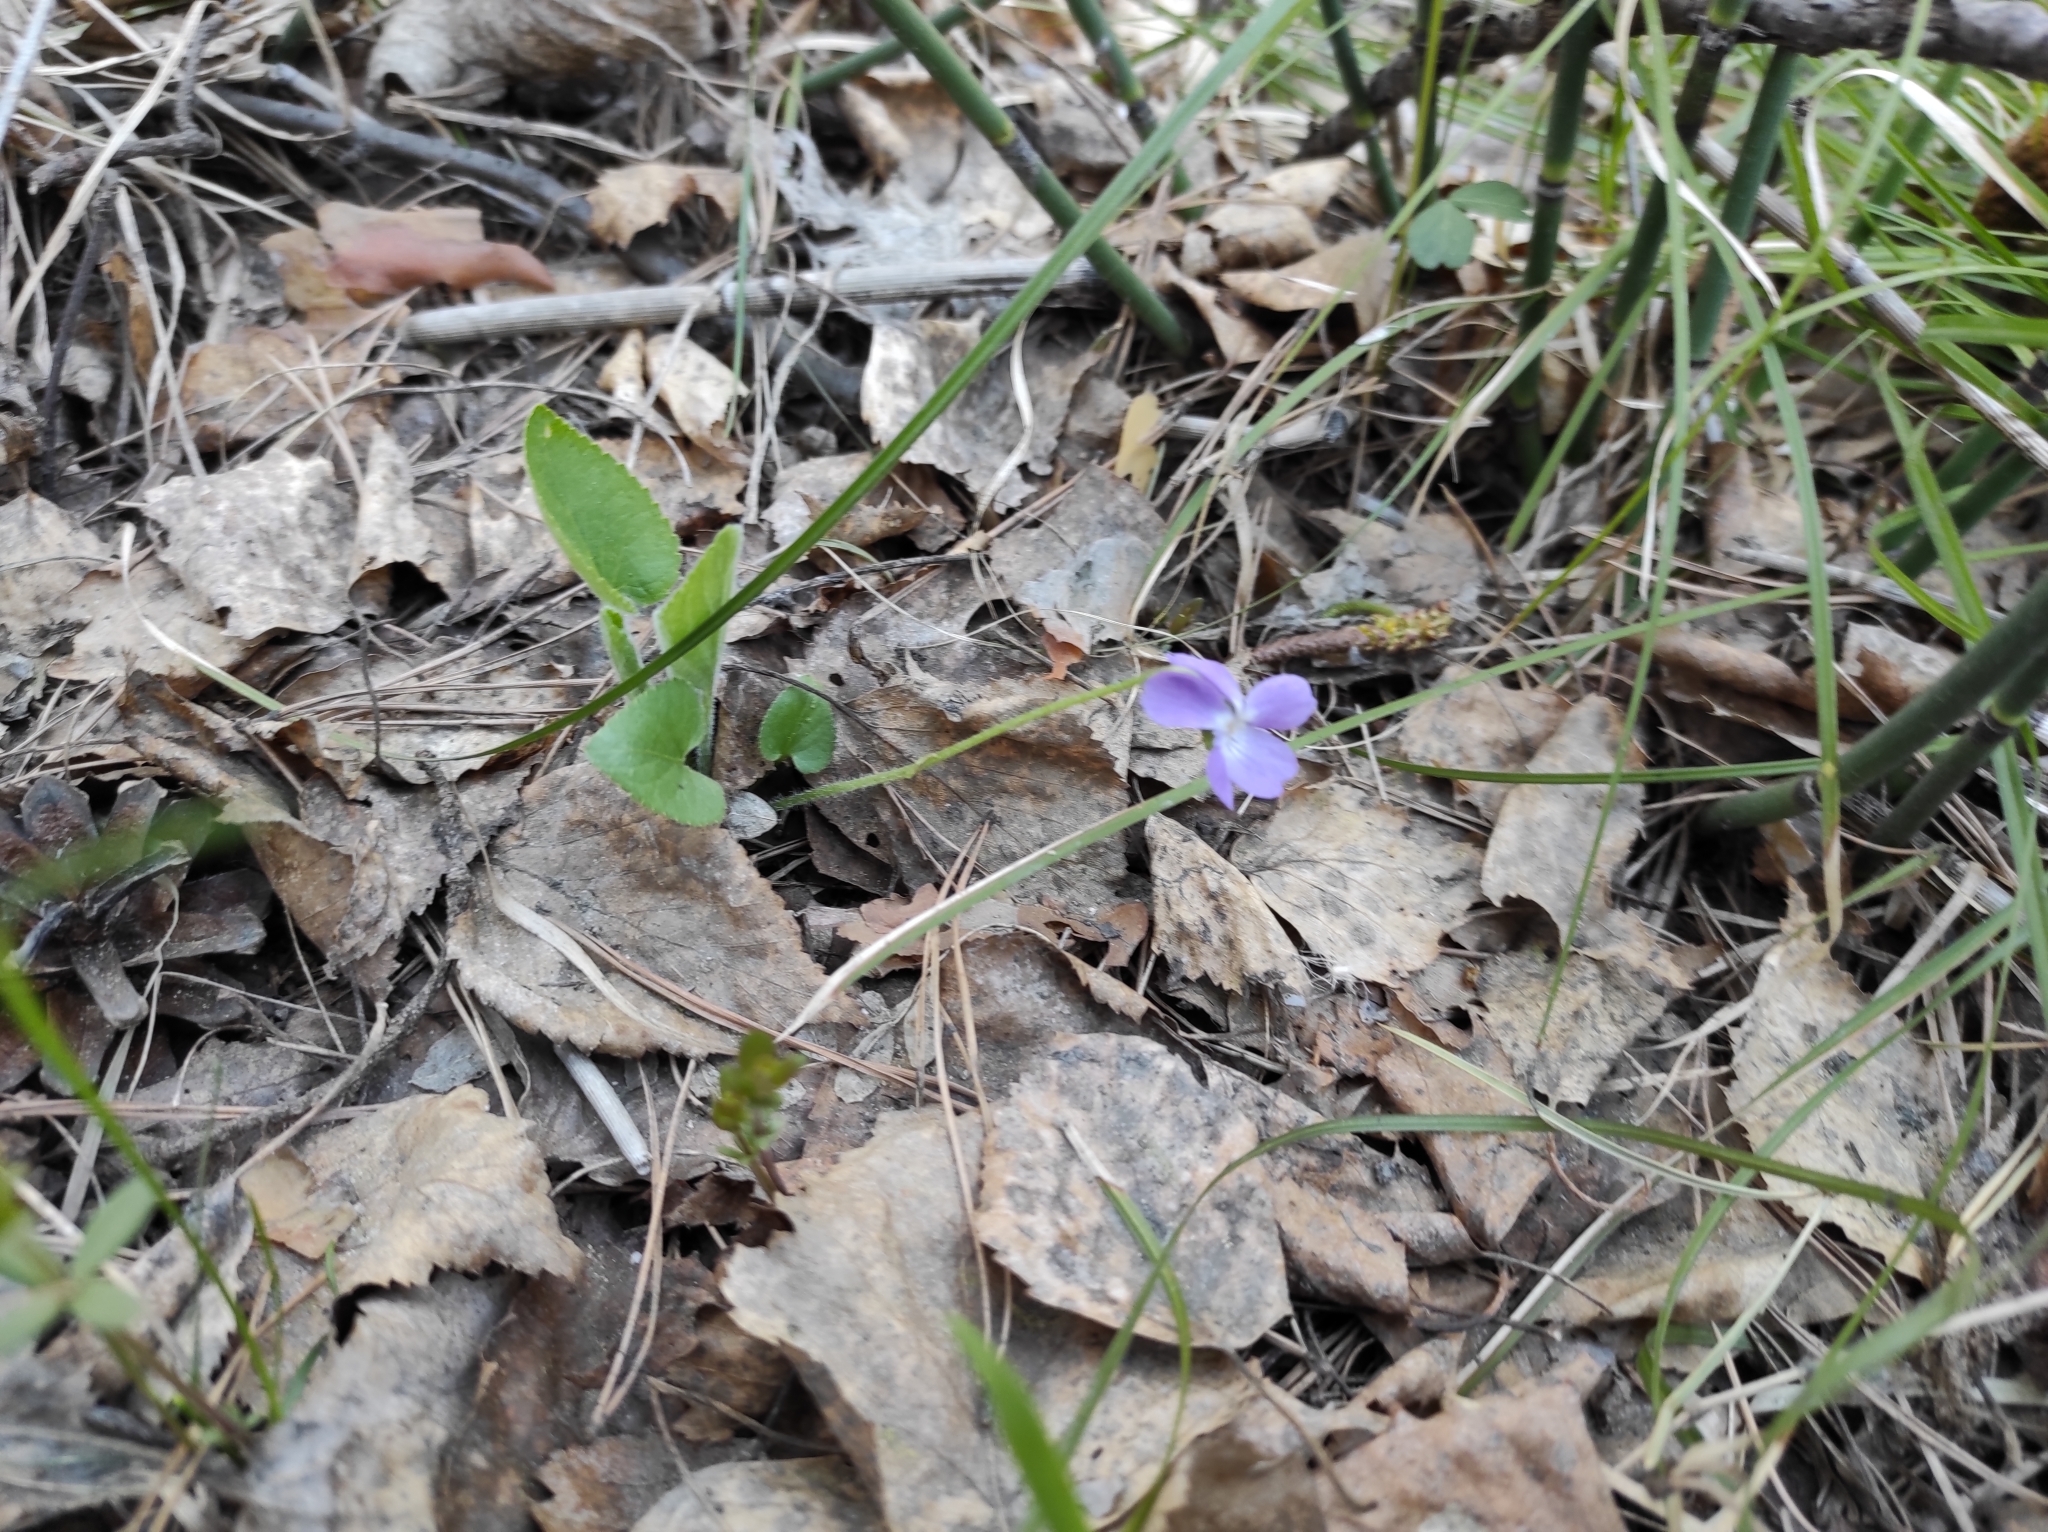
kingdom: Plantae
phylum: Tracheophyta
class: Magnoliopsida
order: Malpighiales
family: Violaceae
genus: Viola
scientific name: Viola hirta
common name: Hairy violet
